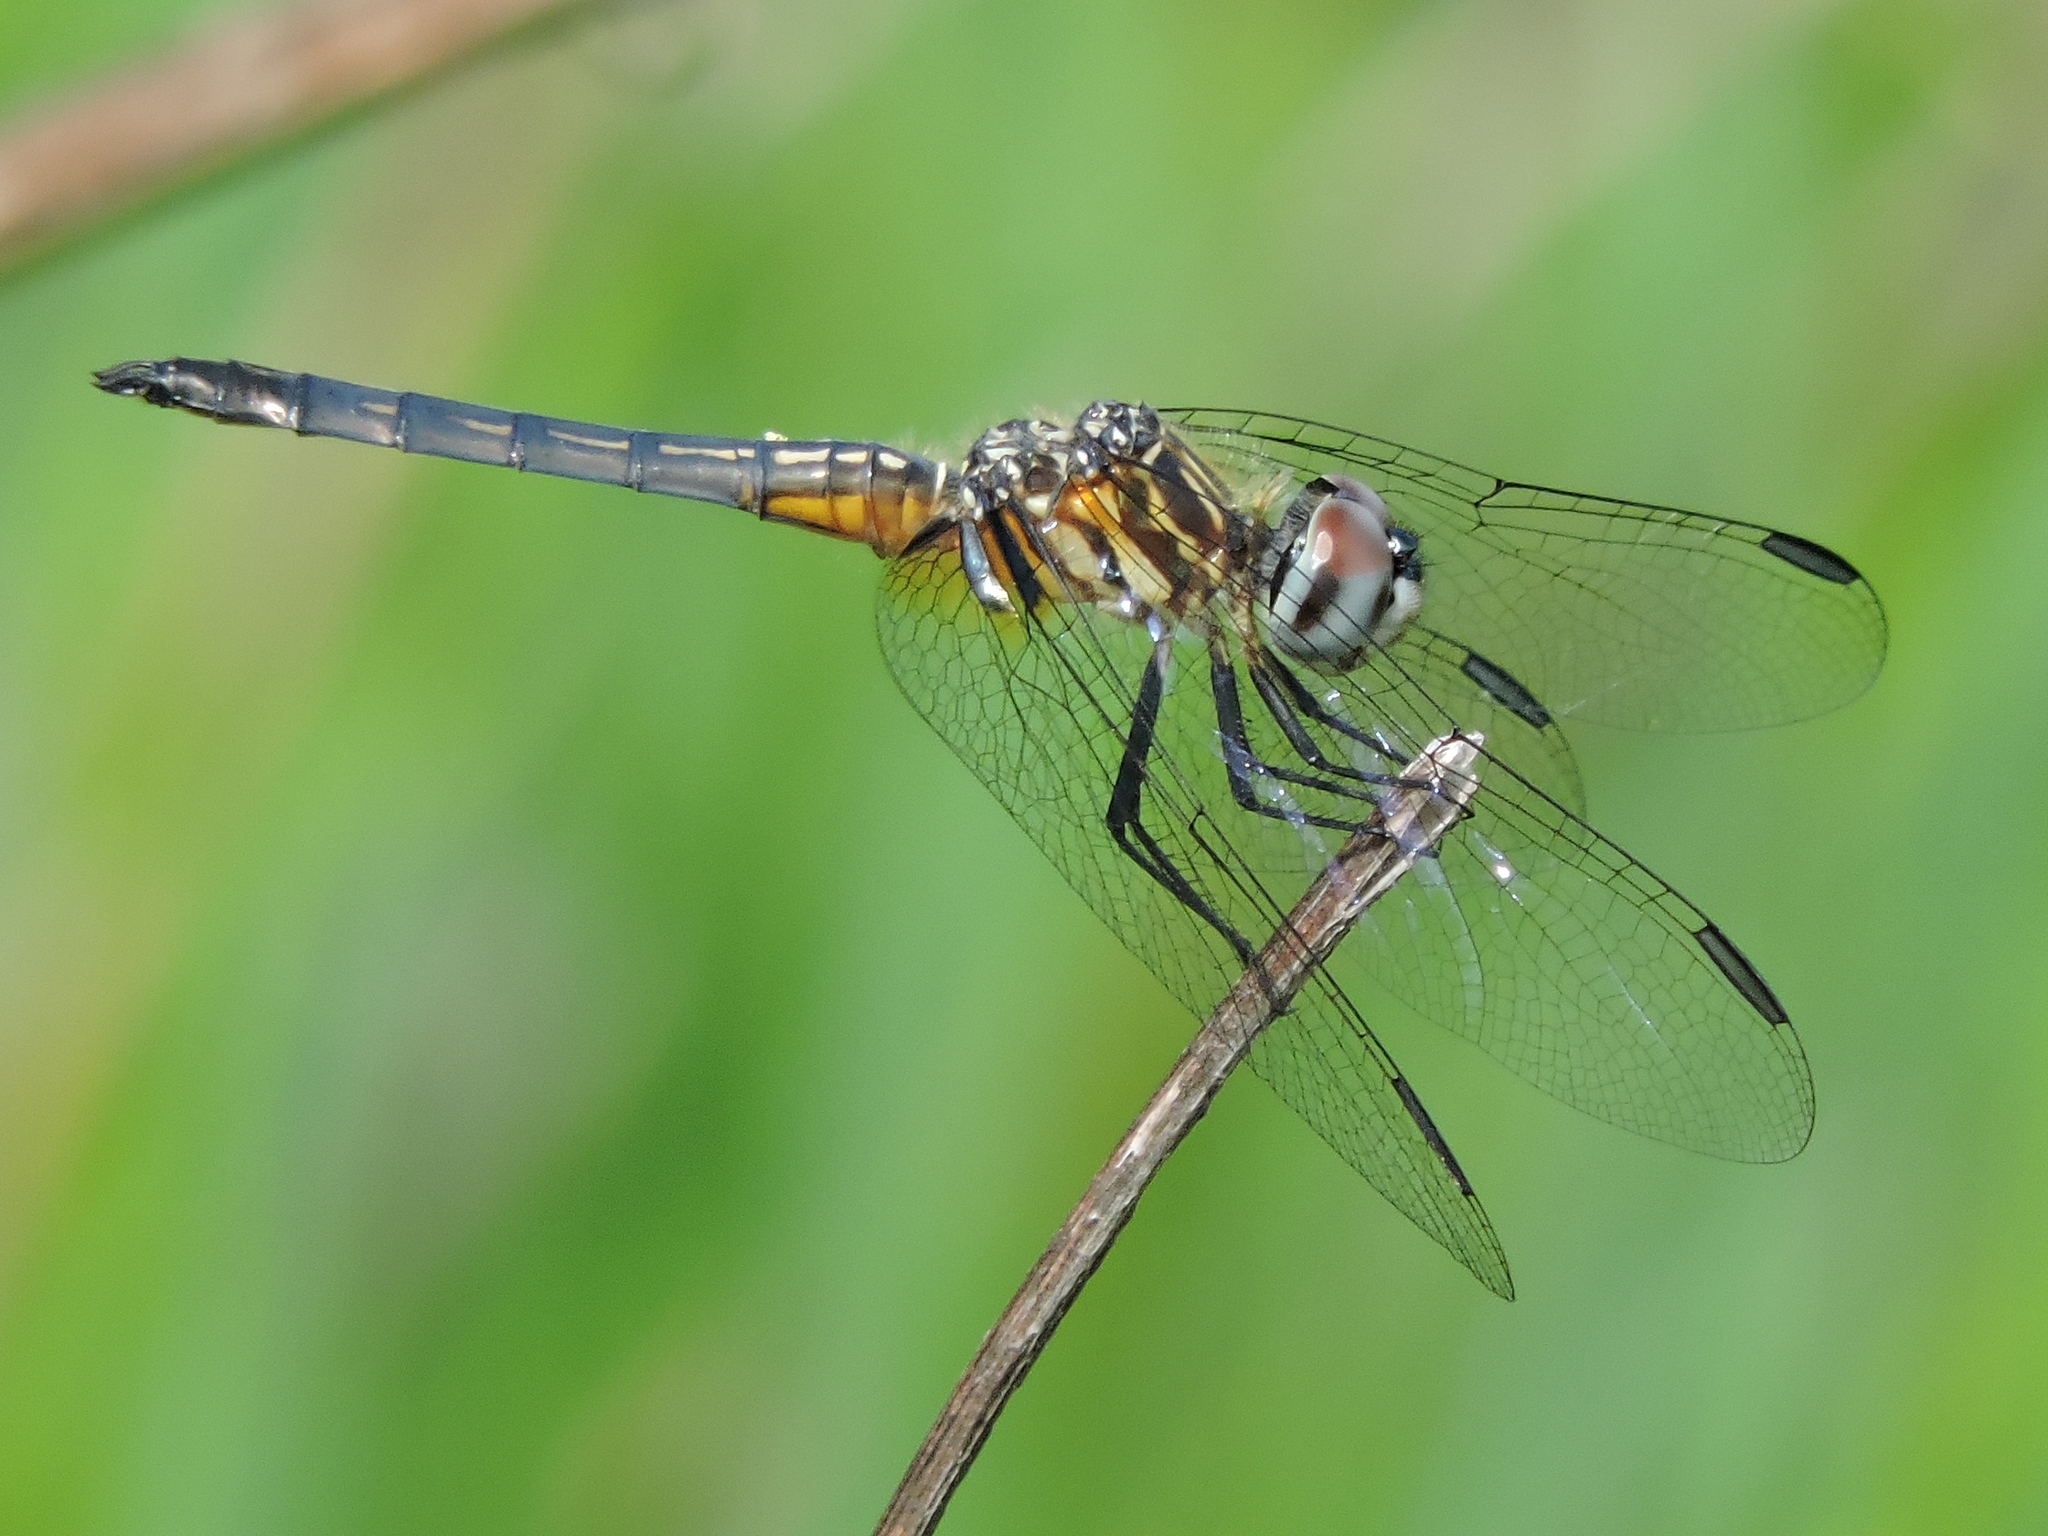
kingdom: Animalia
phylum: Arthropoda
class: Insecta
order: Odonata
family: Libellulidae
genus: Pachydiplax
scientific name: Pachydiplax longipennis
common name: Blue dasher
